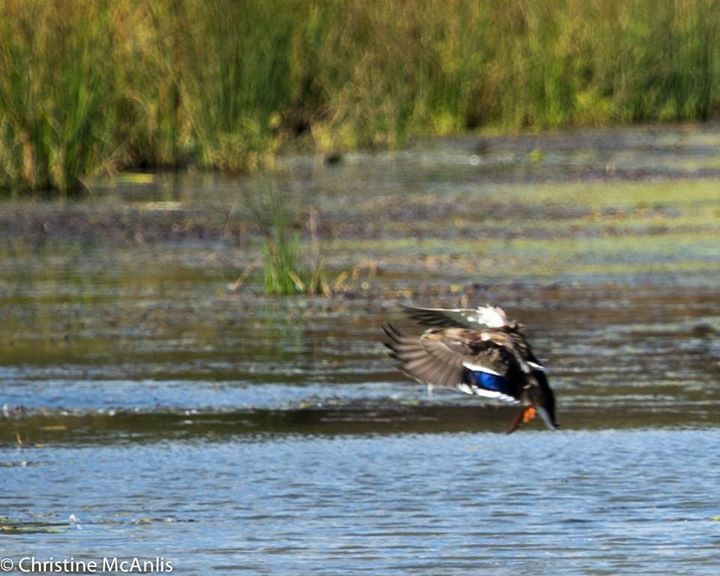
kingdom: Animalia
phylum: Chordata
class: Aves
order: Anseriformes
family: Anatidae
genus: Anas
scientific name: Anas platyrhynchos
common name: Mallard
